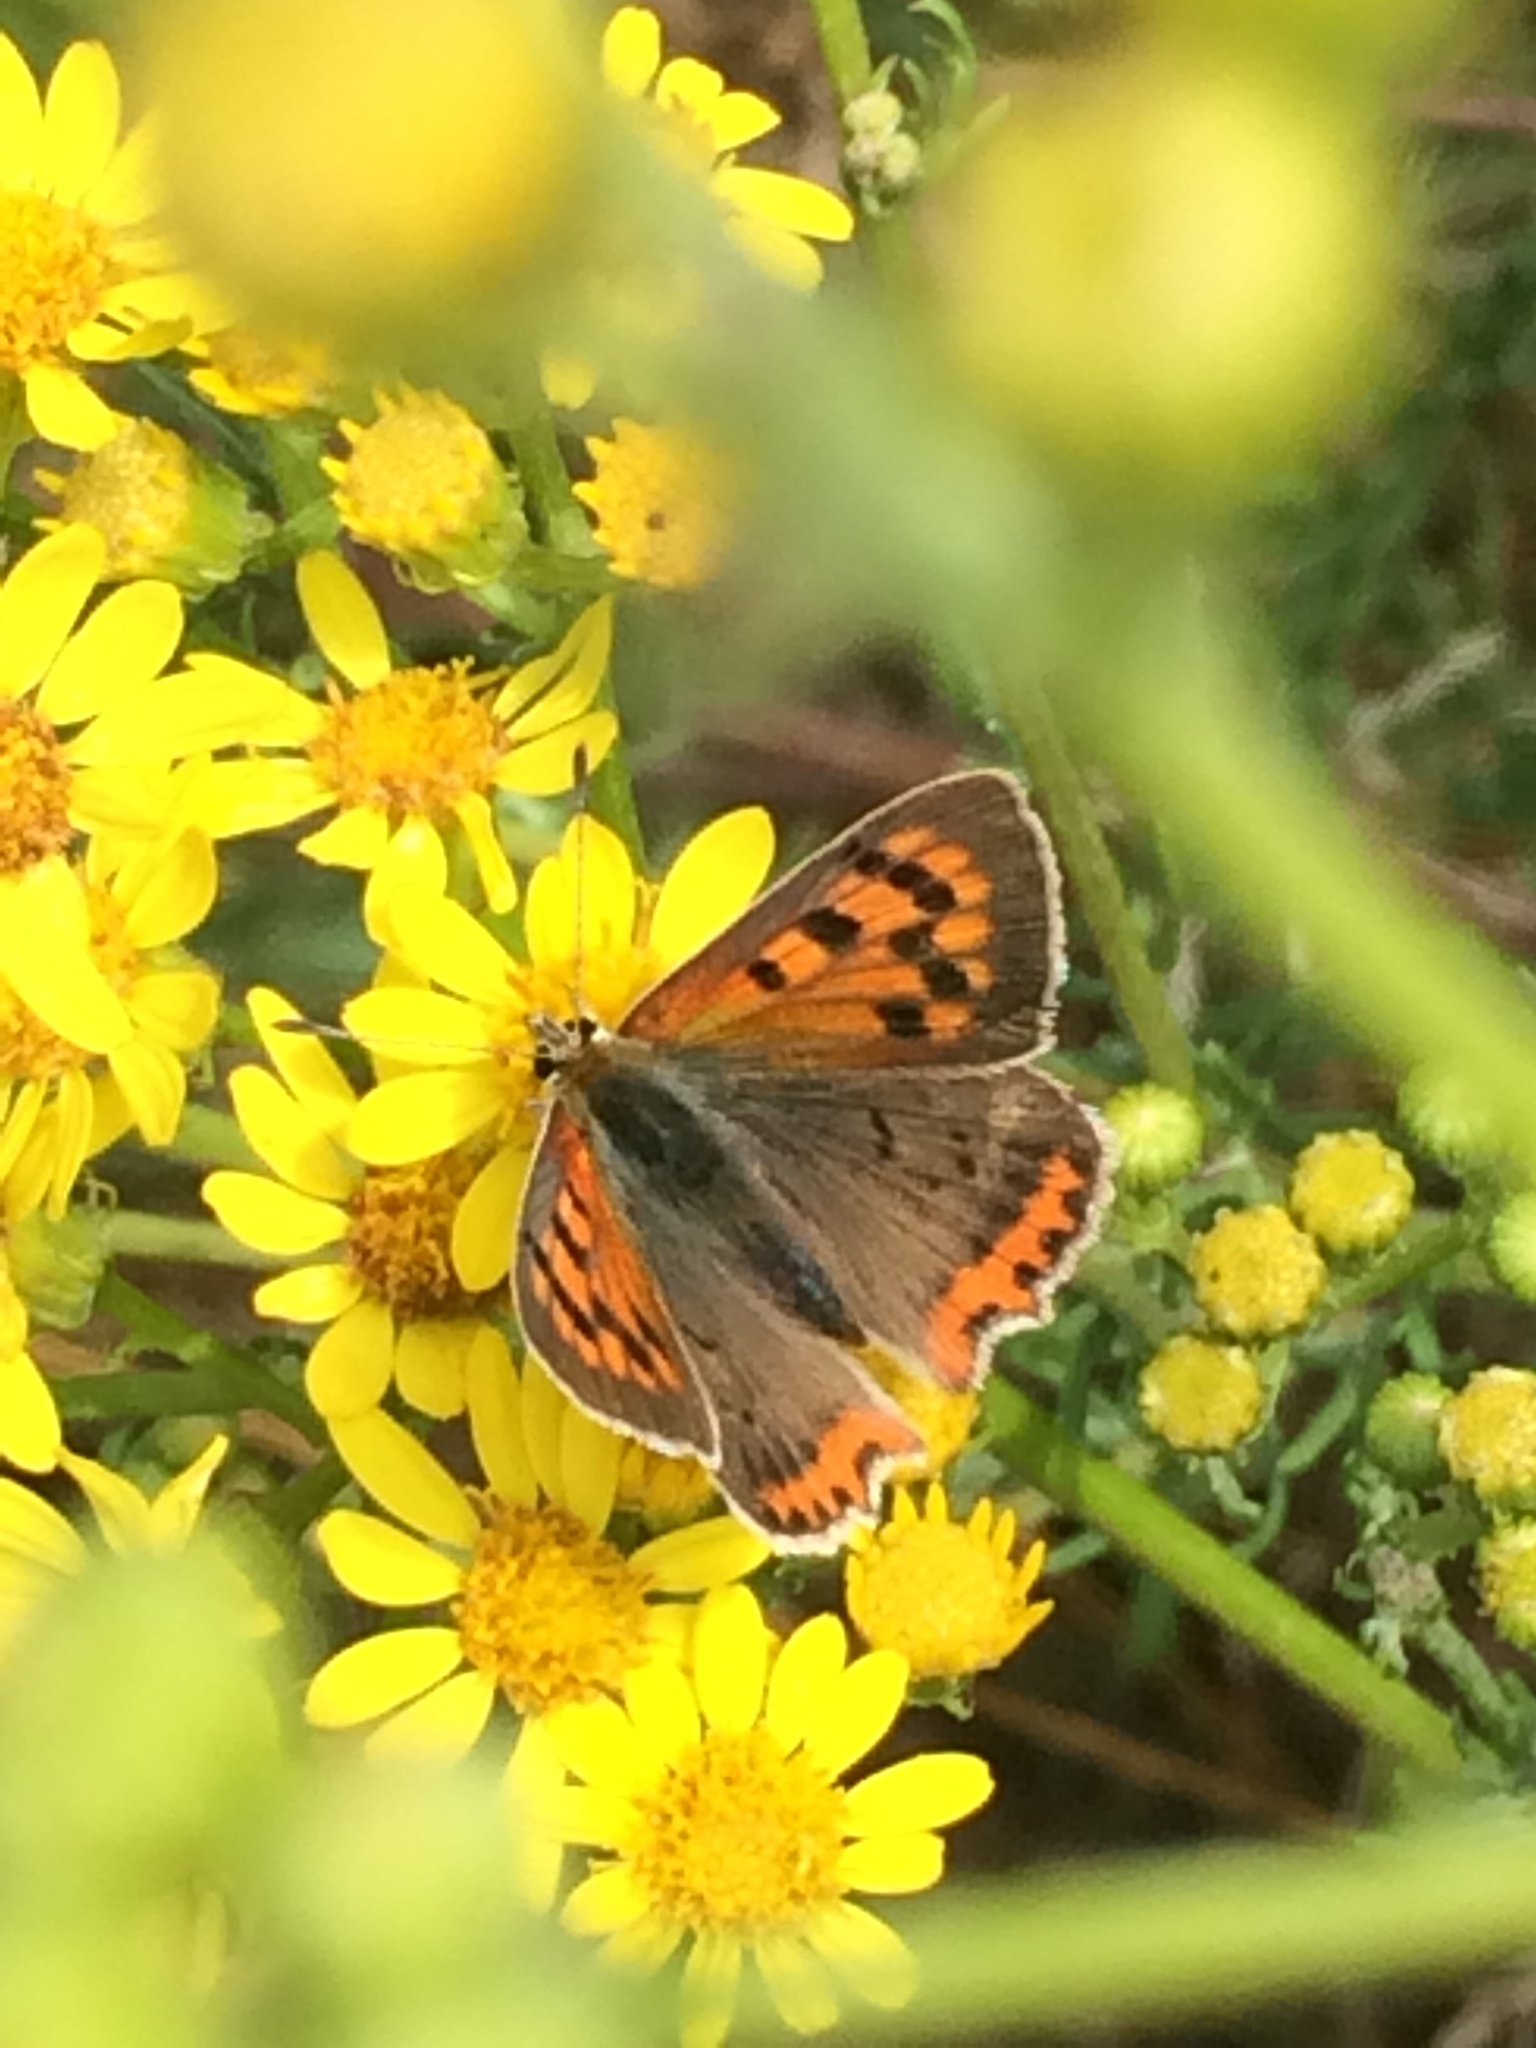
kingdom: Animalia
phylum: Arthropoda
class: Insecta
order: Lepidoptera
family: Lycaenidae
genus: Lycaena
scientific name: Lycaena phlaeas
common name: Small copper
